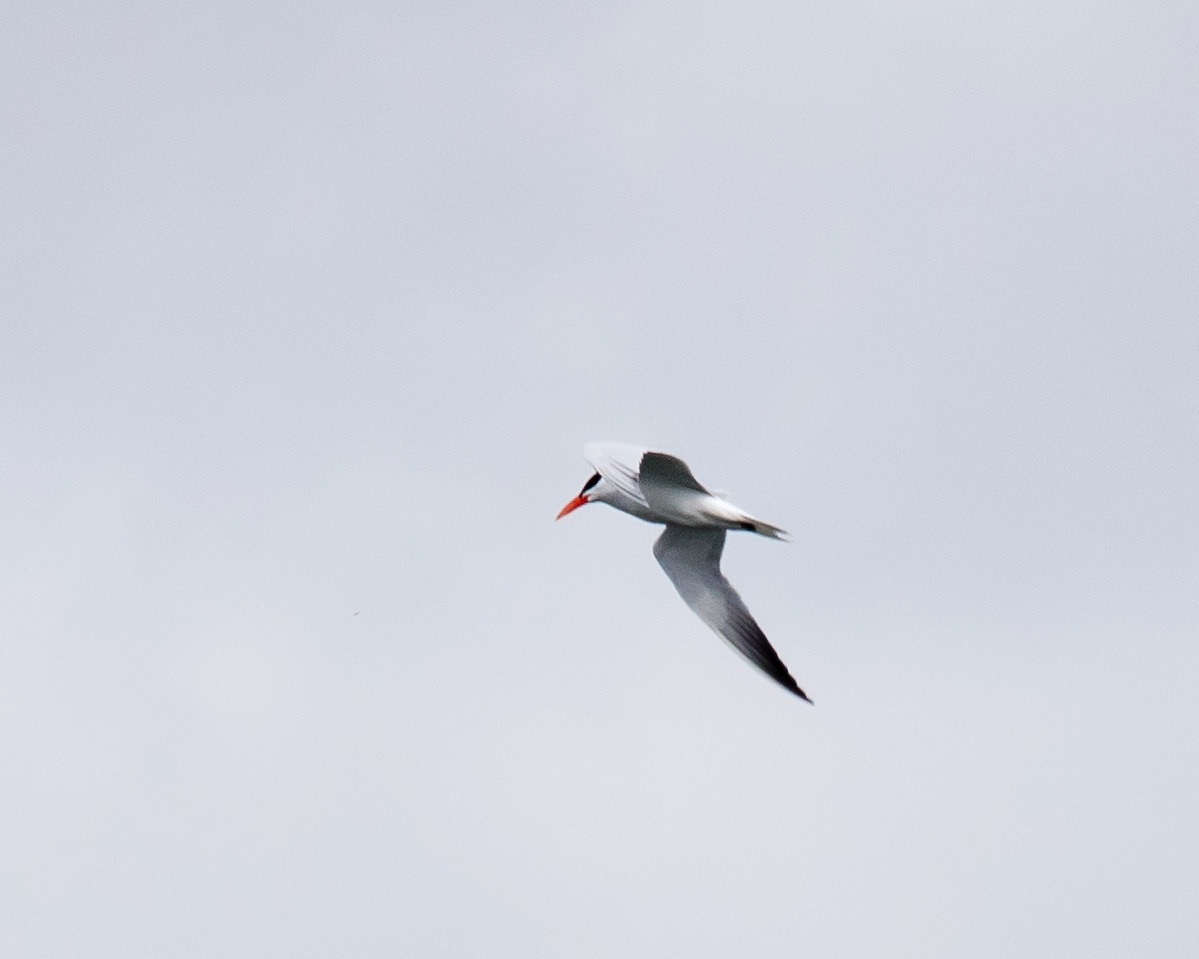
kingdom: Animalia
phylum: Chordata
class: Aves
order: Charadriiformes
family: Laridae
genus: Hydroprogne
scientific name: Hydroprogne caspia
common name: Caspian tern
